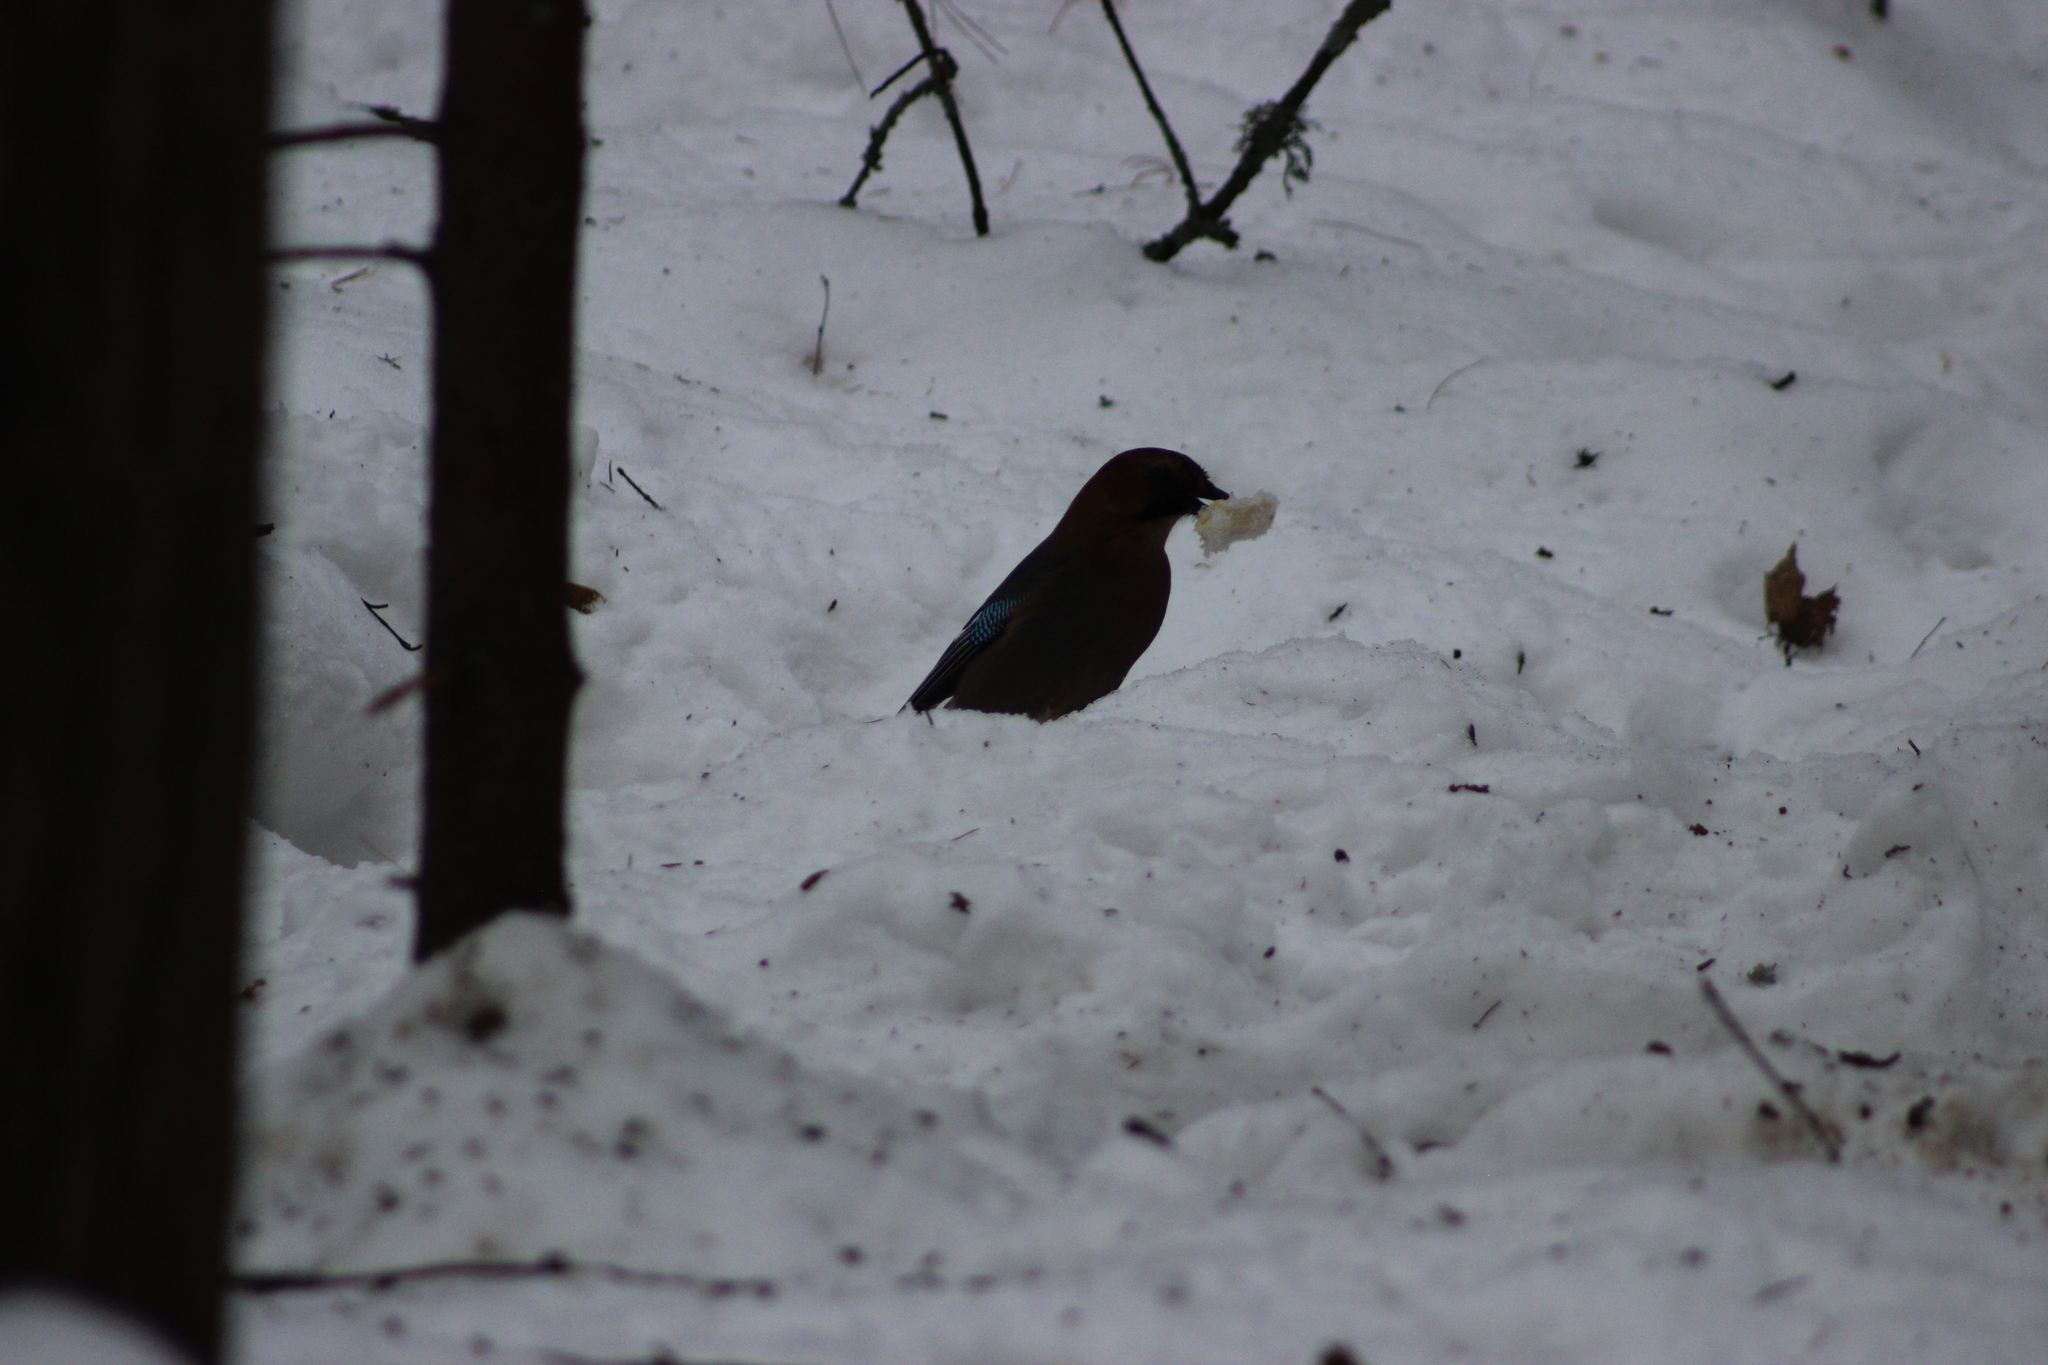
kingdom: Animalia
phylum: Chordata
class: Aves
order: Passeriformes
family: Corvidae
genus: Garrulus
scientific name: Garrulus glandarius
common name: Eurasian jay
